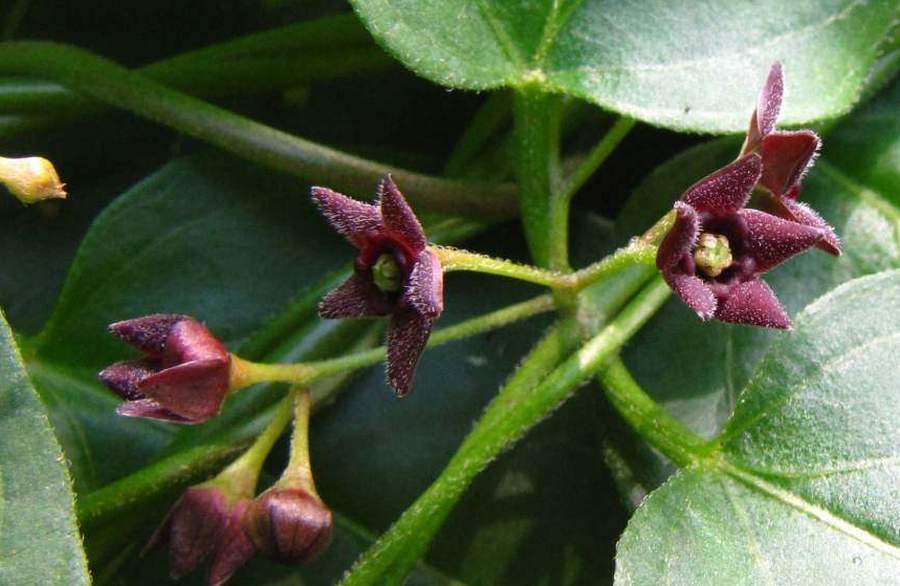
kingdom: Plantae
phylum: Tracheophyta
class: Magnoliopsida
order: Gentianales
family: Apocynaceae
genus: Vincetoxicum
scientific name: Vincetoxicum nigrum
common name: Black swallow-wort
